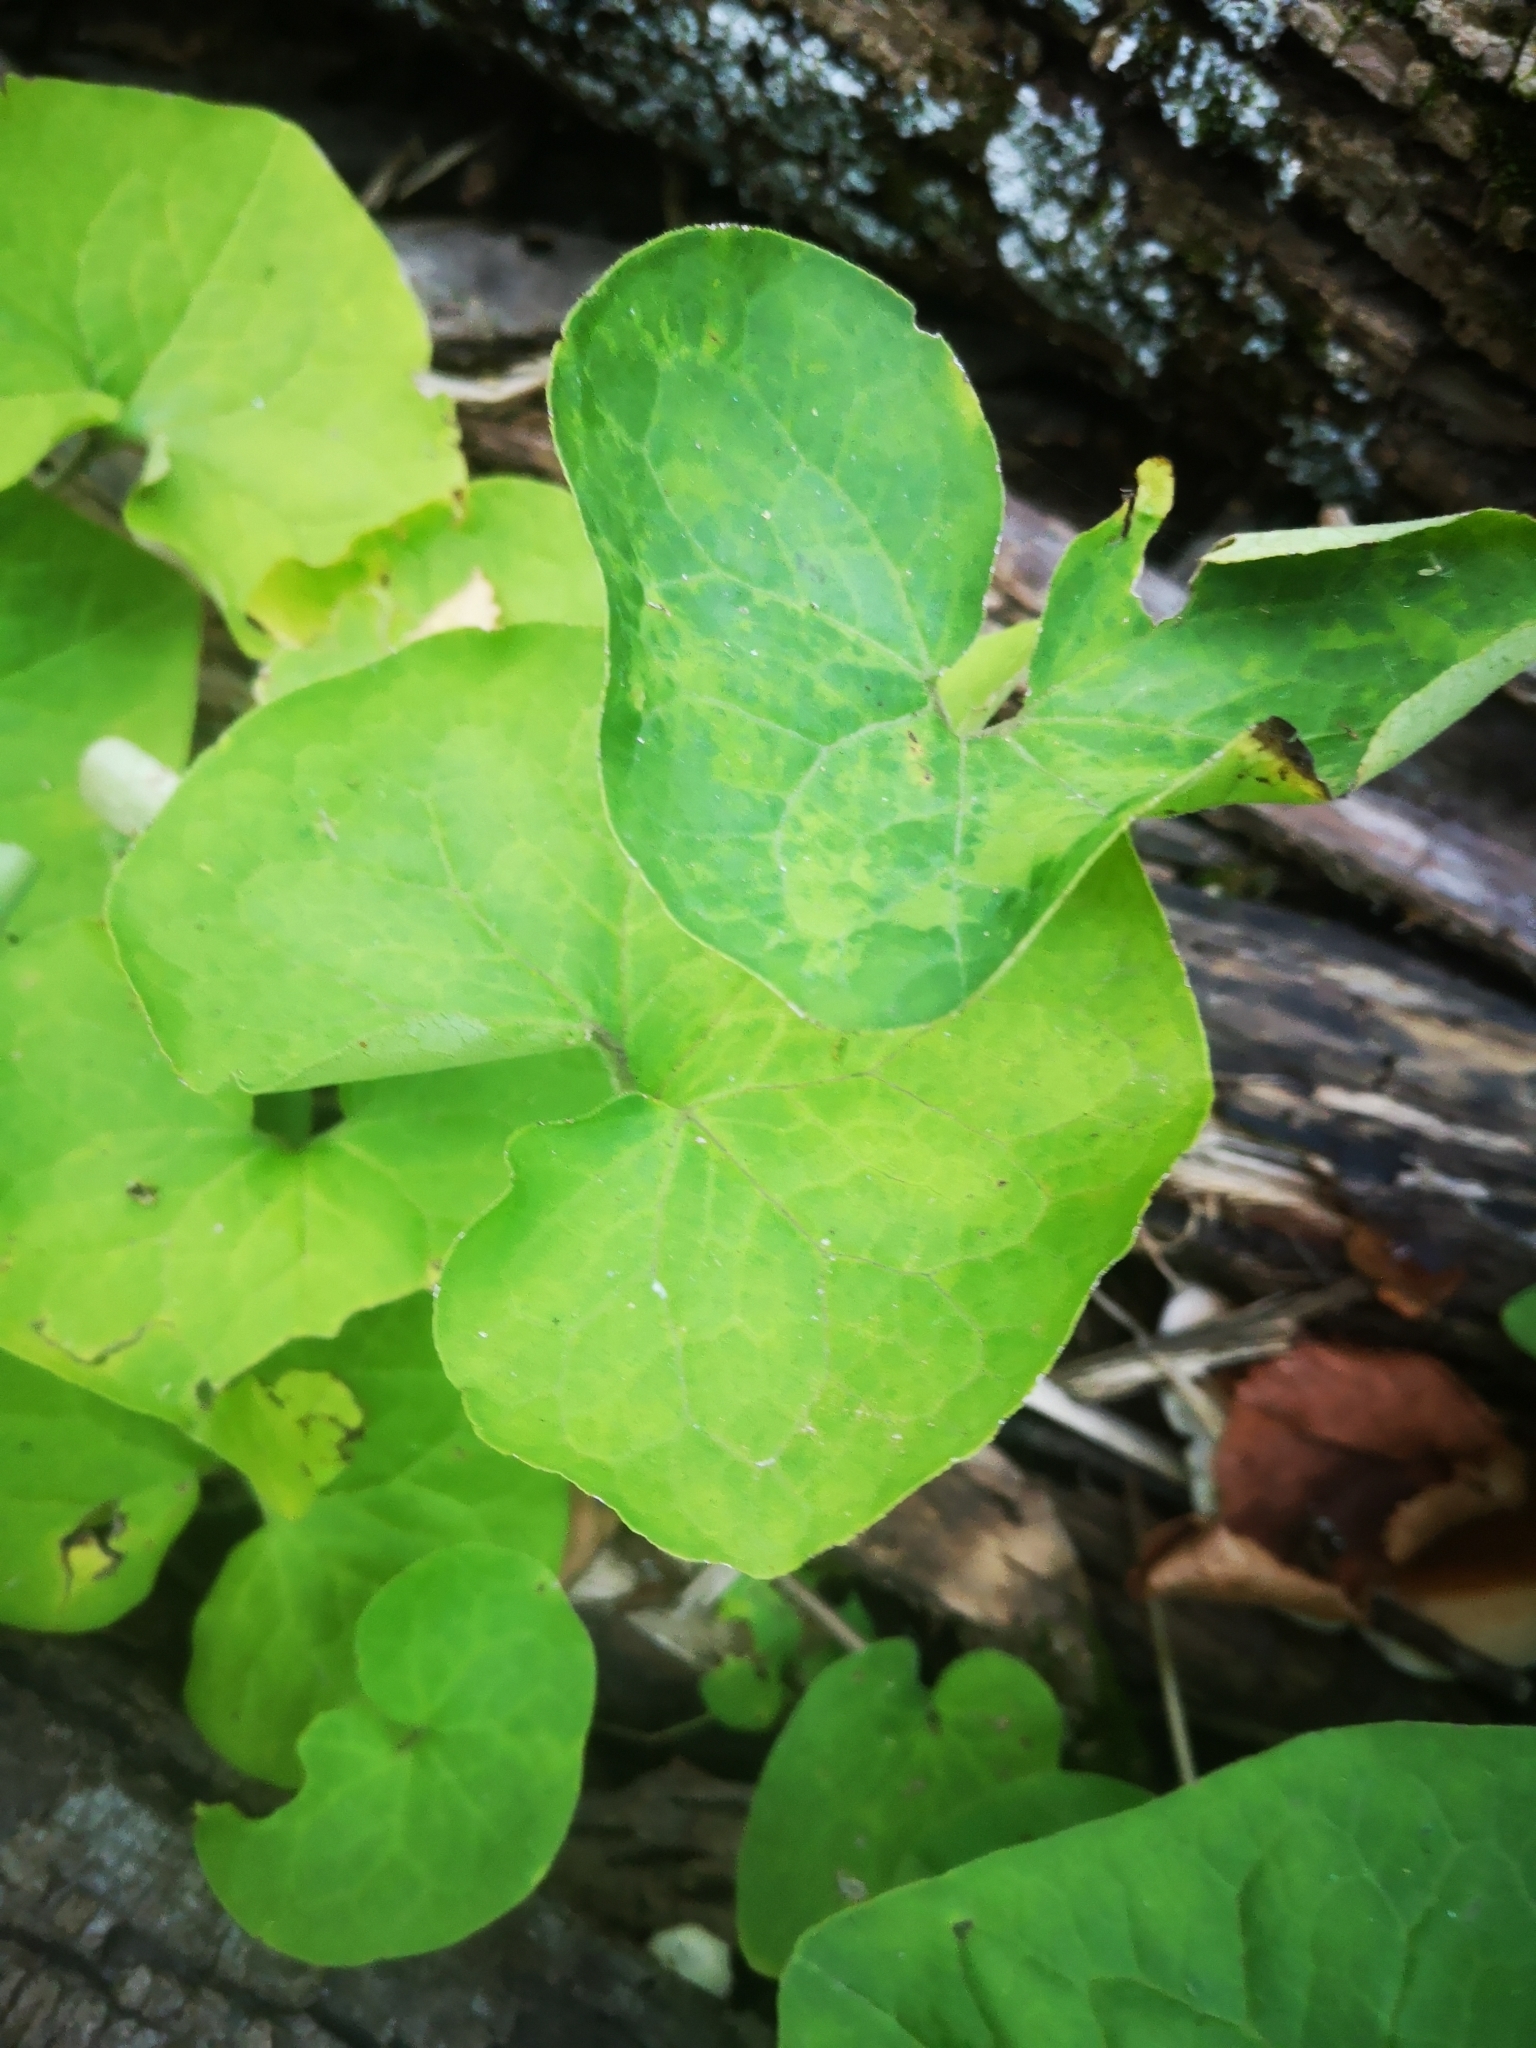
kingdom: Plantae
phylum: Tracheophyta
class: Magnoliopsida
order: Piperales
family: Aristolochiaceae
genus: Asarum
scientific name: Asarum canadense
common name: Wild ginger
